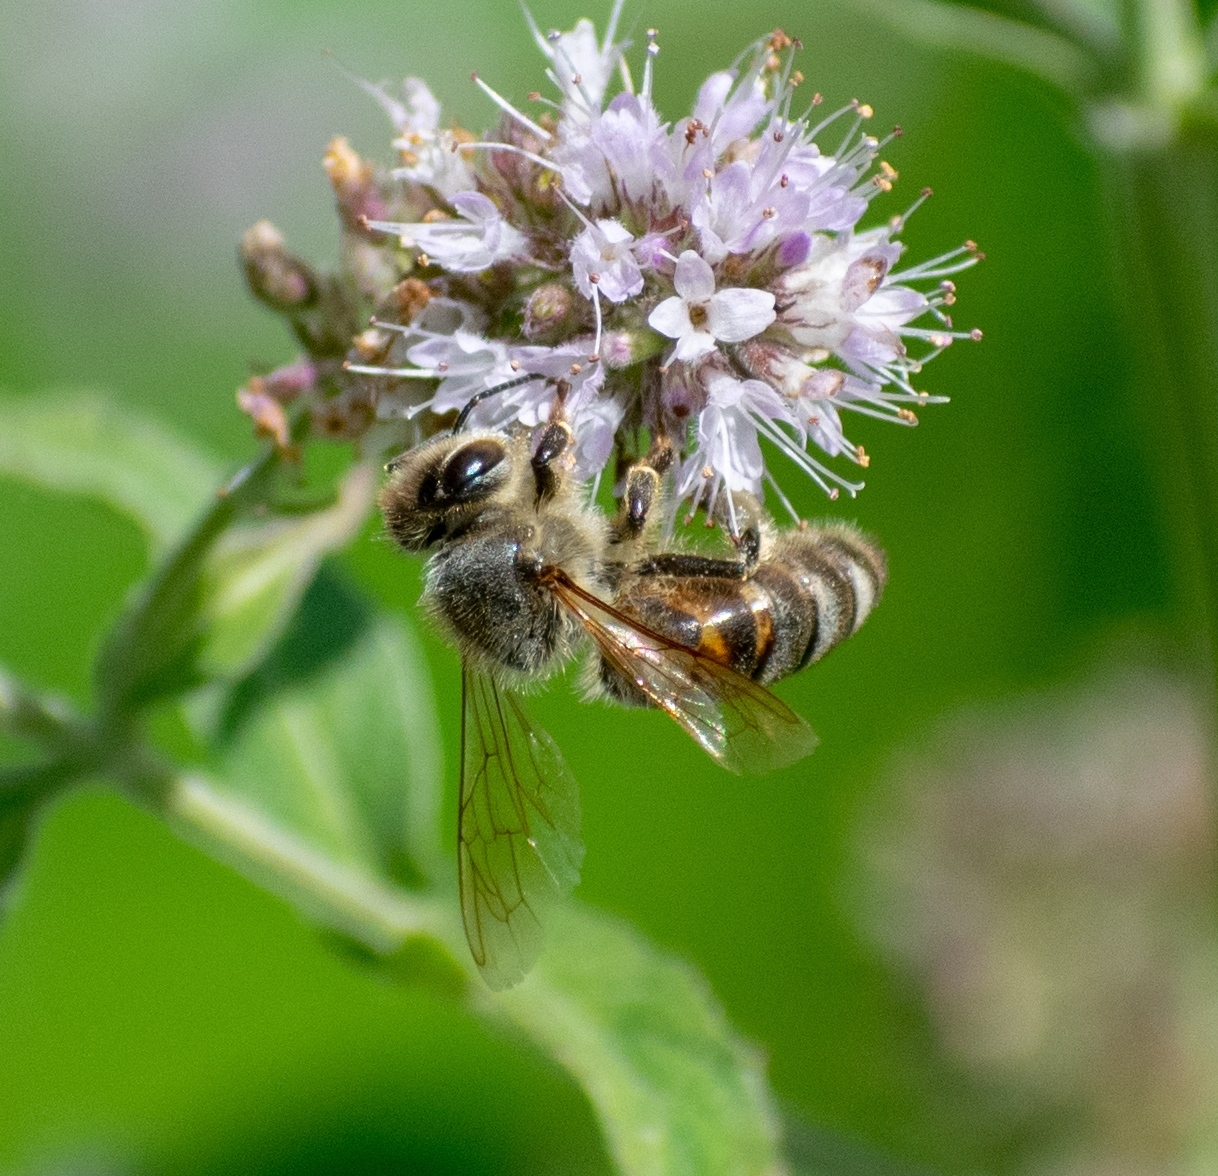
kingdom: Animalia
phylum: Arthropoda
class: Insecta
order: Hymenoptera
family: Apidae
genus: Apis
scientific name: Apis mellifera
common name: Honey bee
